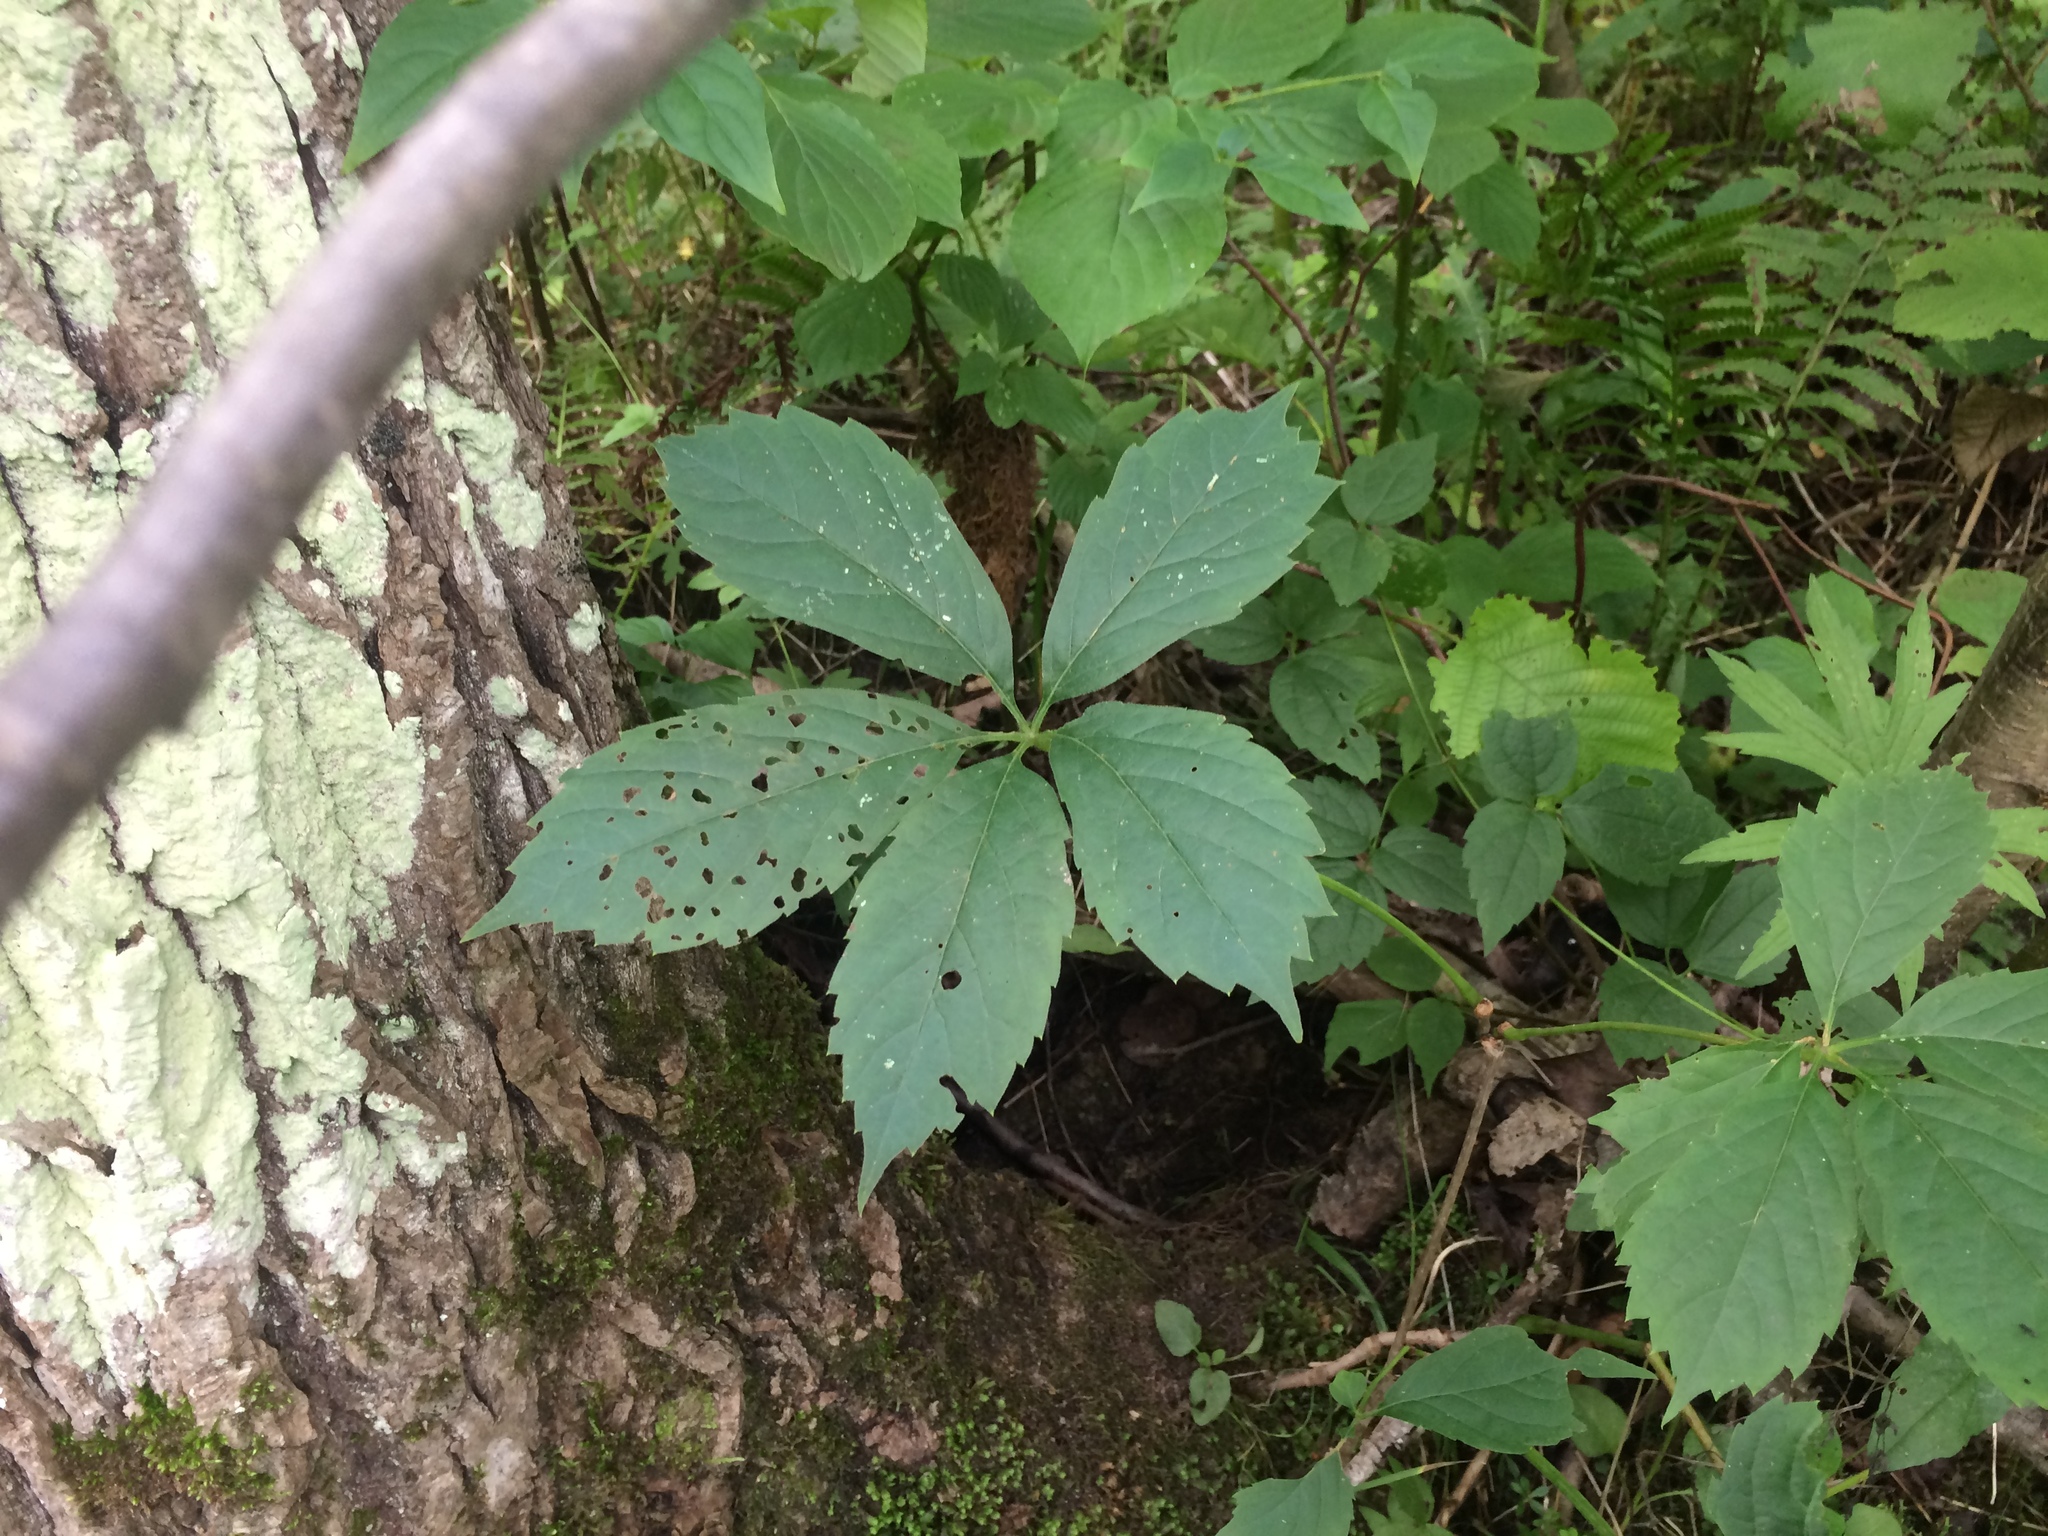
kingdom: Plantae
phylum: Tracheophyta
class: Magnoliopsida
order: Vitales
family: Vitaceae
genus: Parthenocissus
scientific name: Parthenocissus quinquefolia
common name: Virginia-creeper
